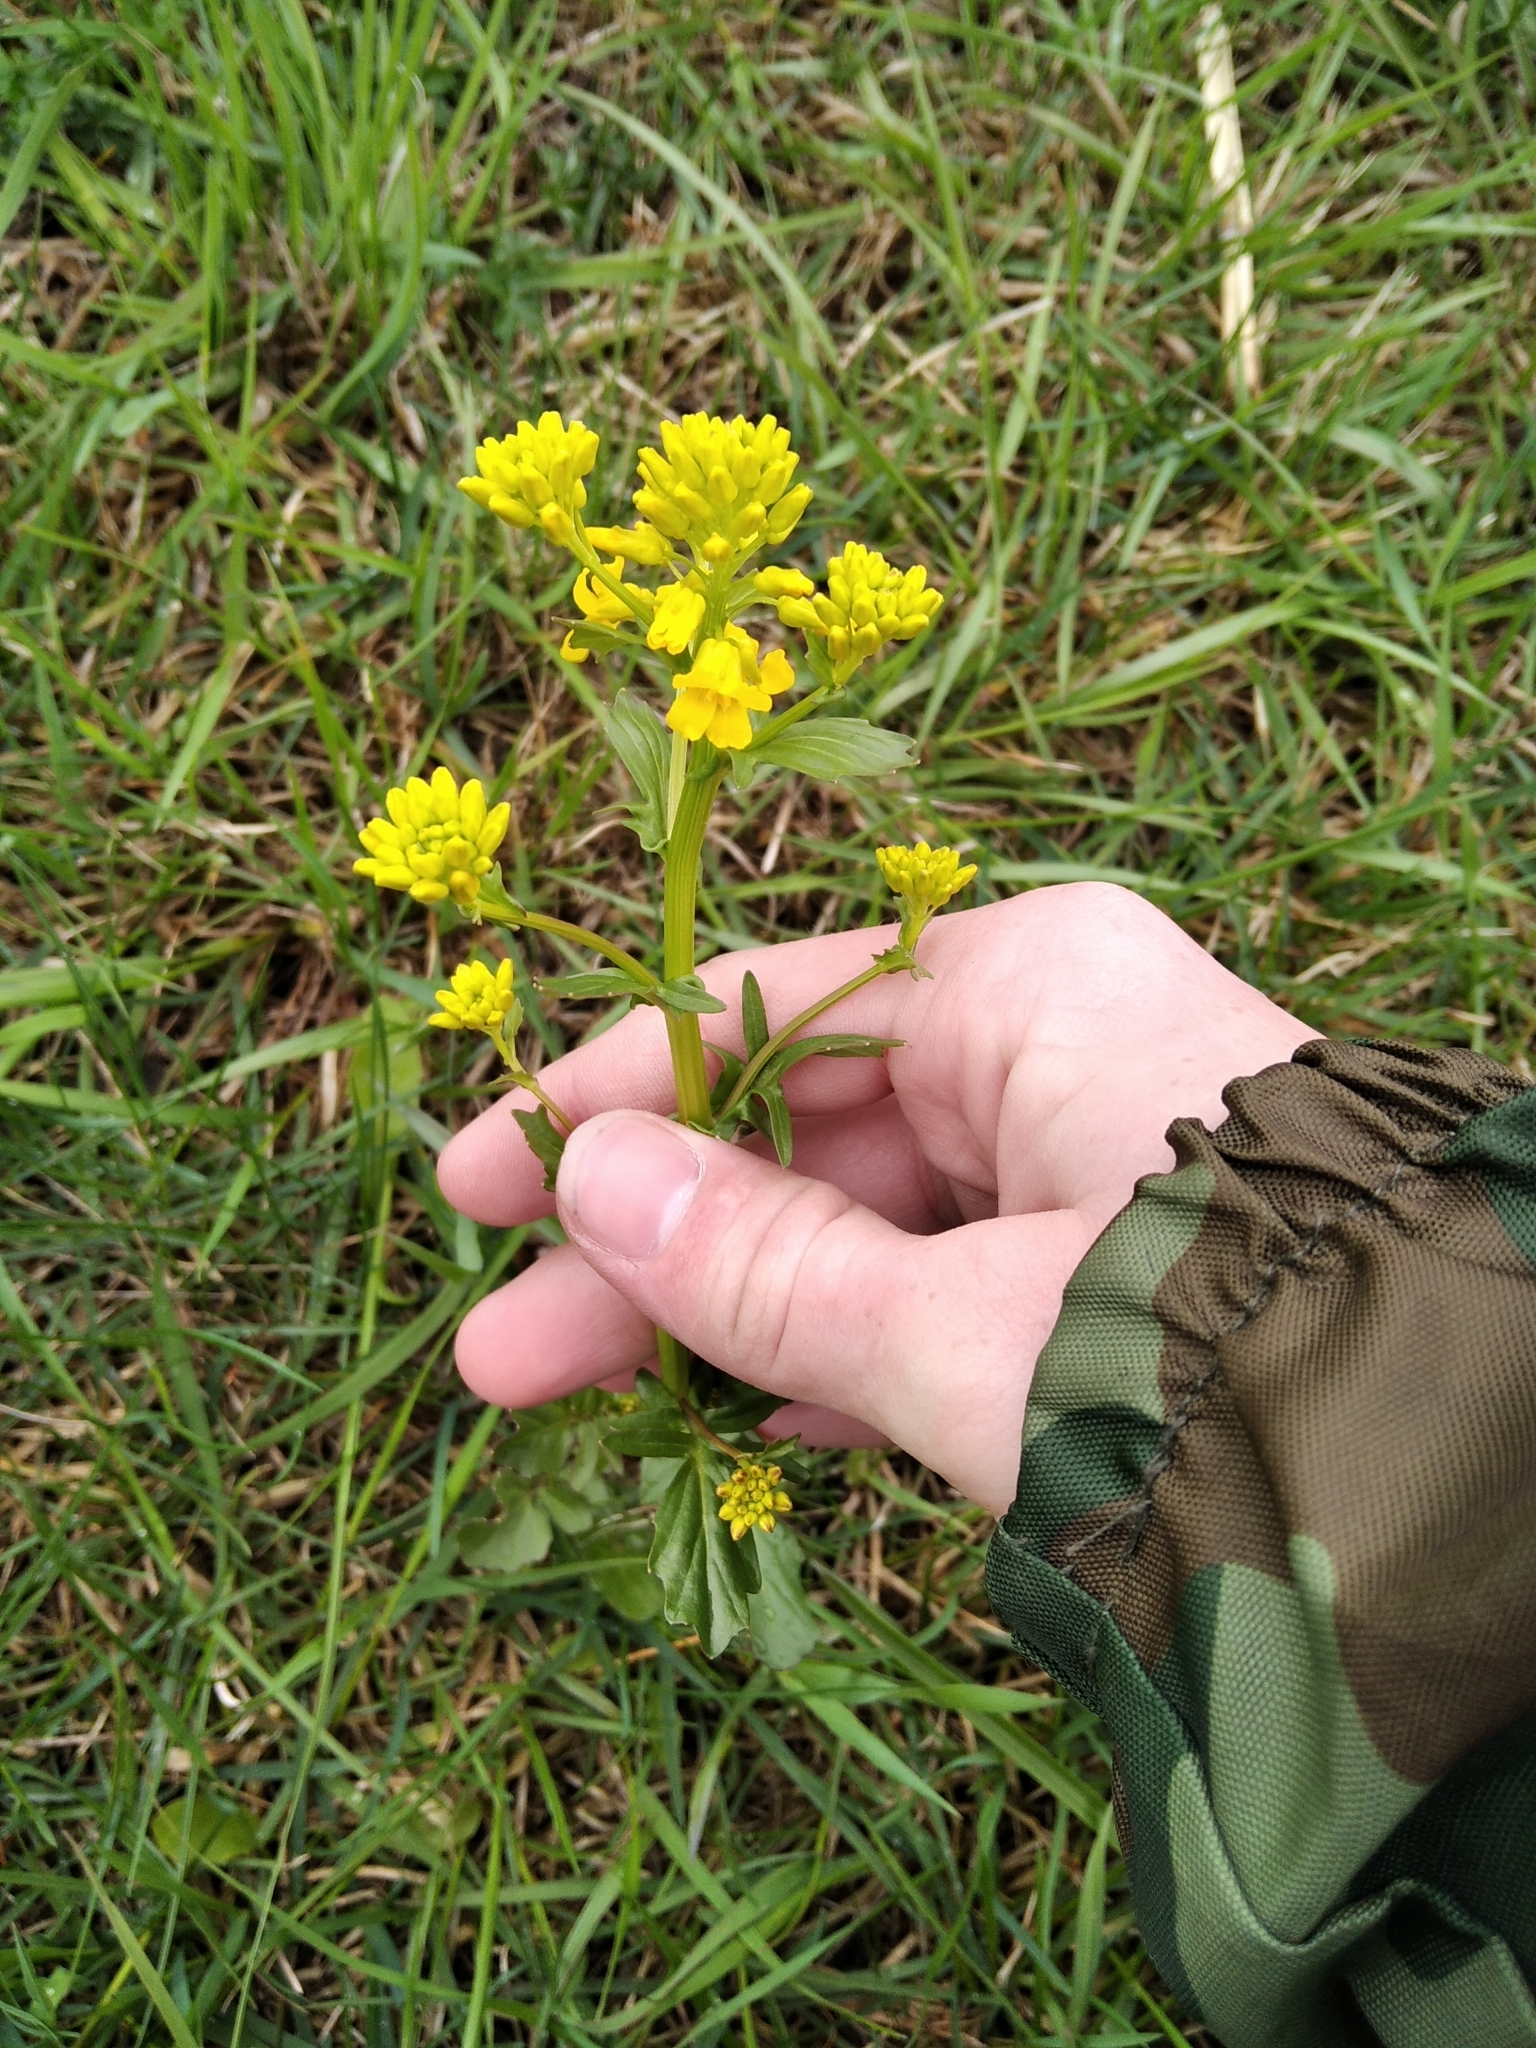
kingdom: Plantae
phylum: Tracheophyta
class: Magnoliopsida
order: Brassicales
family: Brassicaceae
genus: Barbarea
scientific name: Barbarea vulgaris
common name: Cressy-greens
